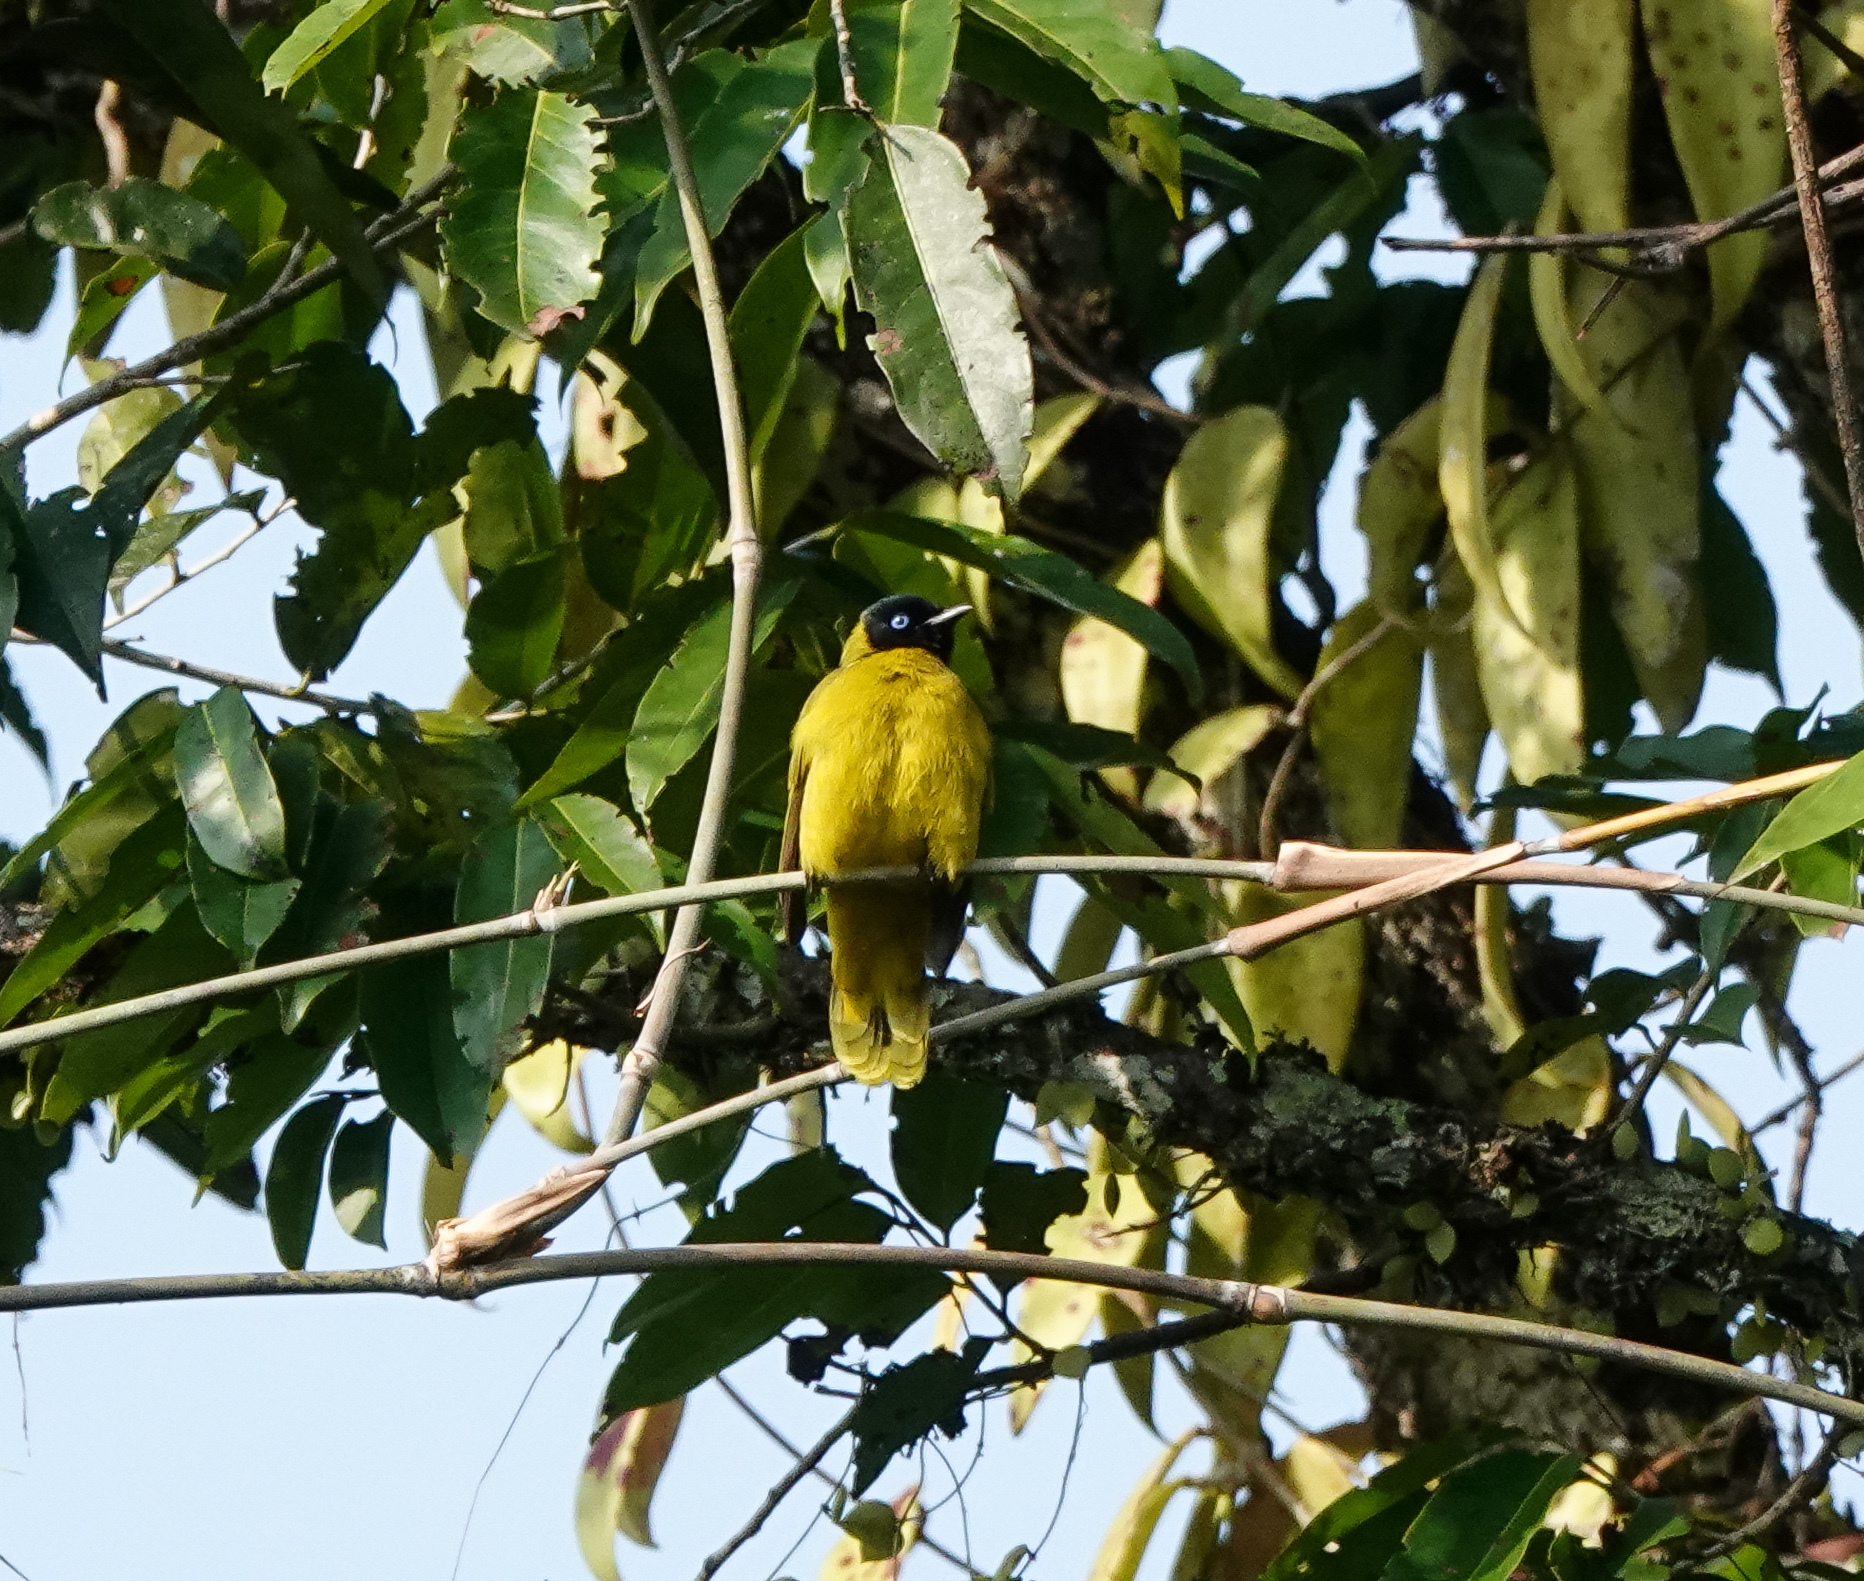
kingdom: Animalia
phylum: Chordata
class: Aves
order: Passeriformes
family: Pycnonotidae
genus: Microtarsus
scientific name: Microtarsus
